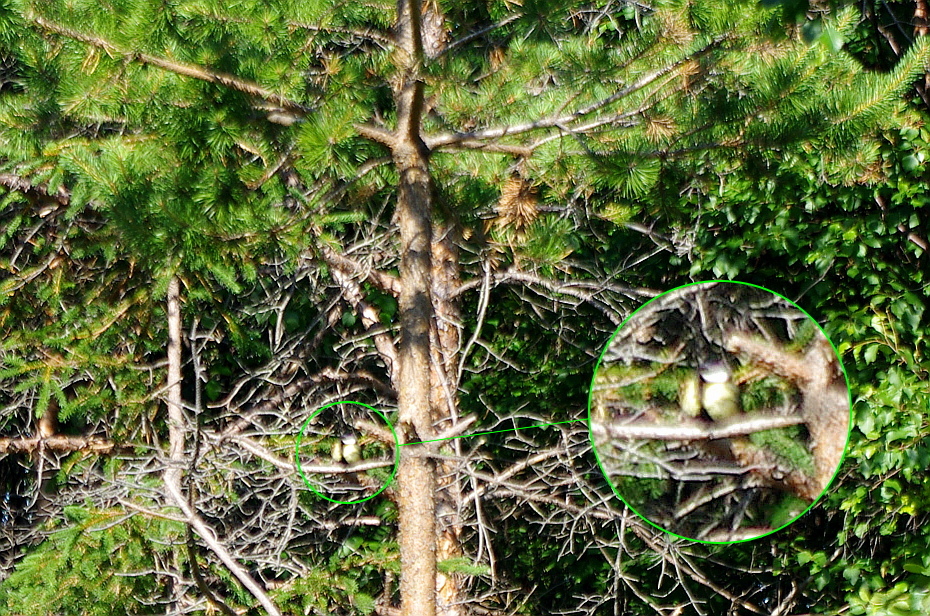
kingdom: Animalia
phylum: Chordata
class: Aves
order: Passeriformes
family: Paridae
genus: Parus
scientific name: Parus major
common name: Great tit
